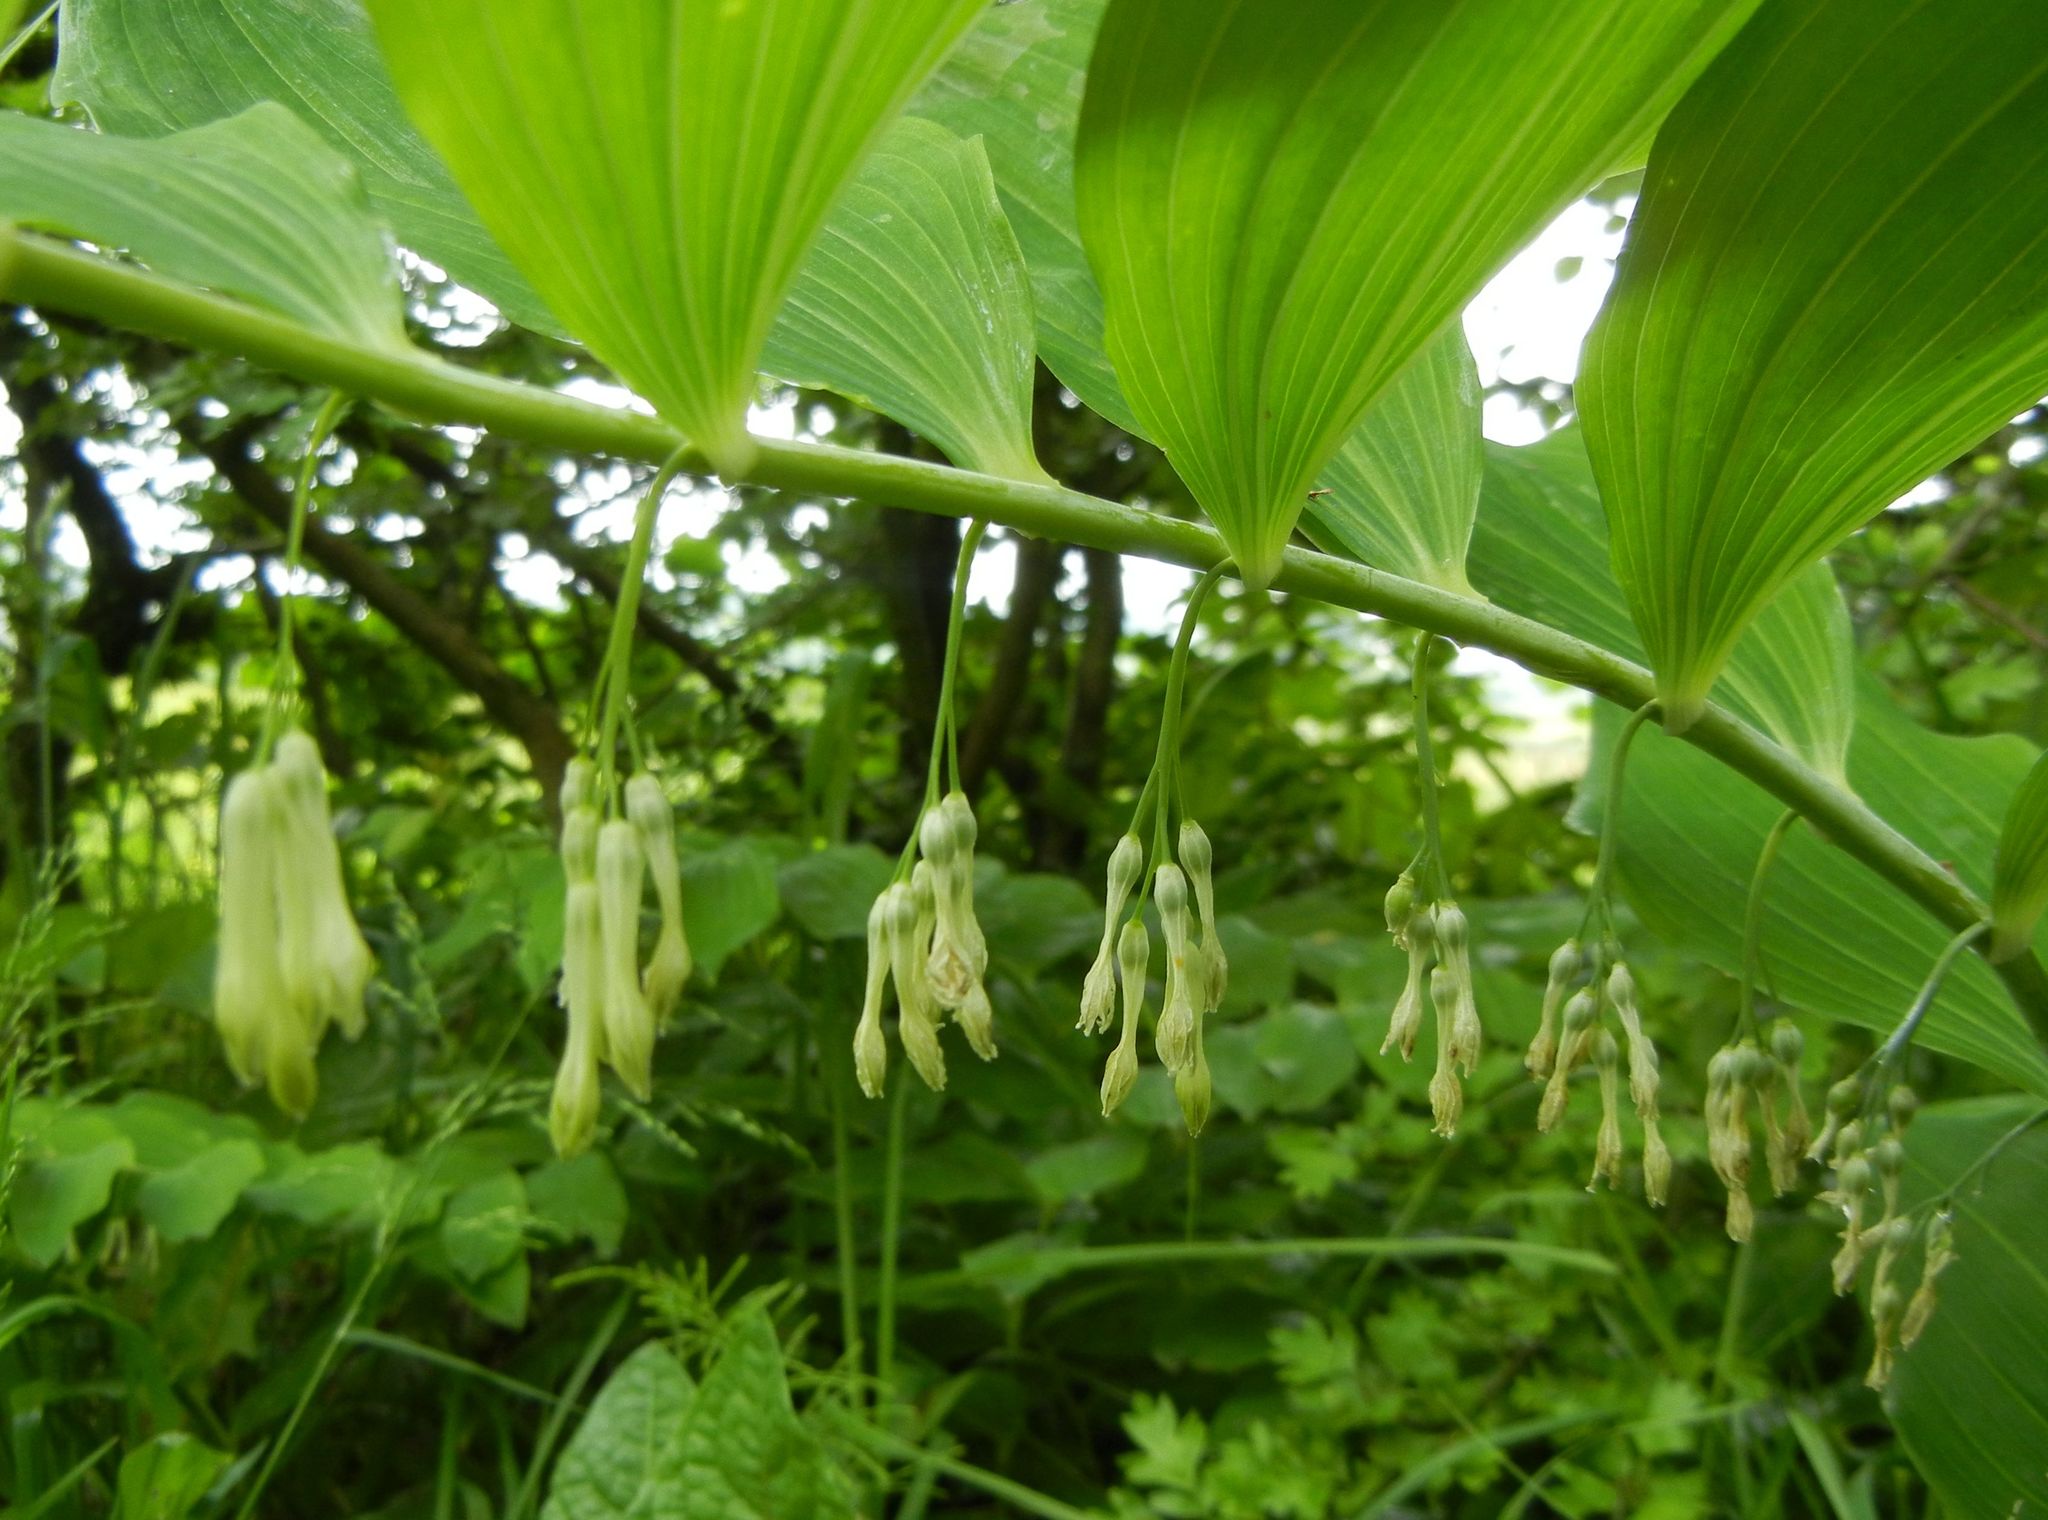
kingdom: Plantae
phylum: Tracheophyta
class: Liliopsida
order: Asparagales
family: Asparagaceae
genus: Polygonatum
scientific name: Polygonatum multiflorum
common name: Solomon's-seal
